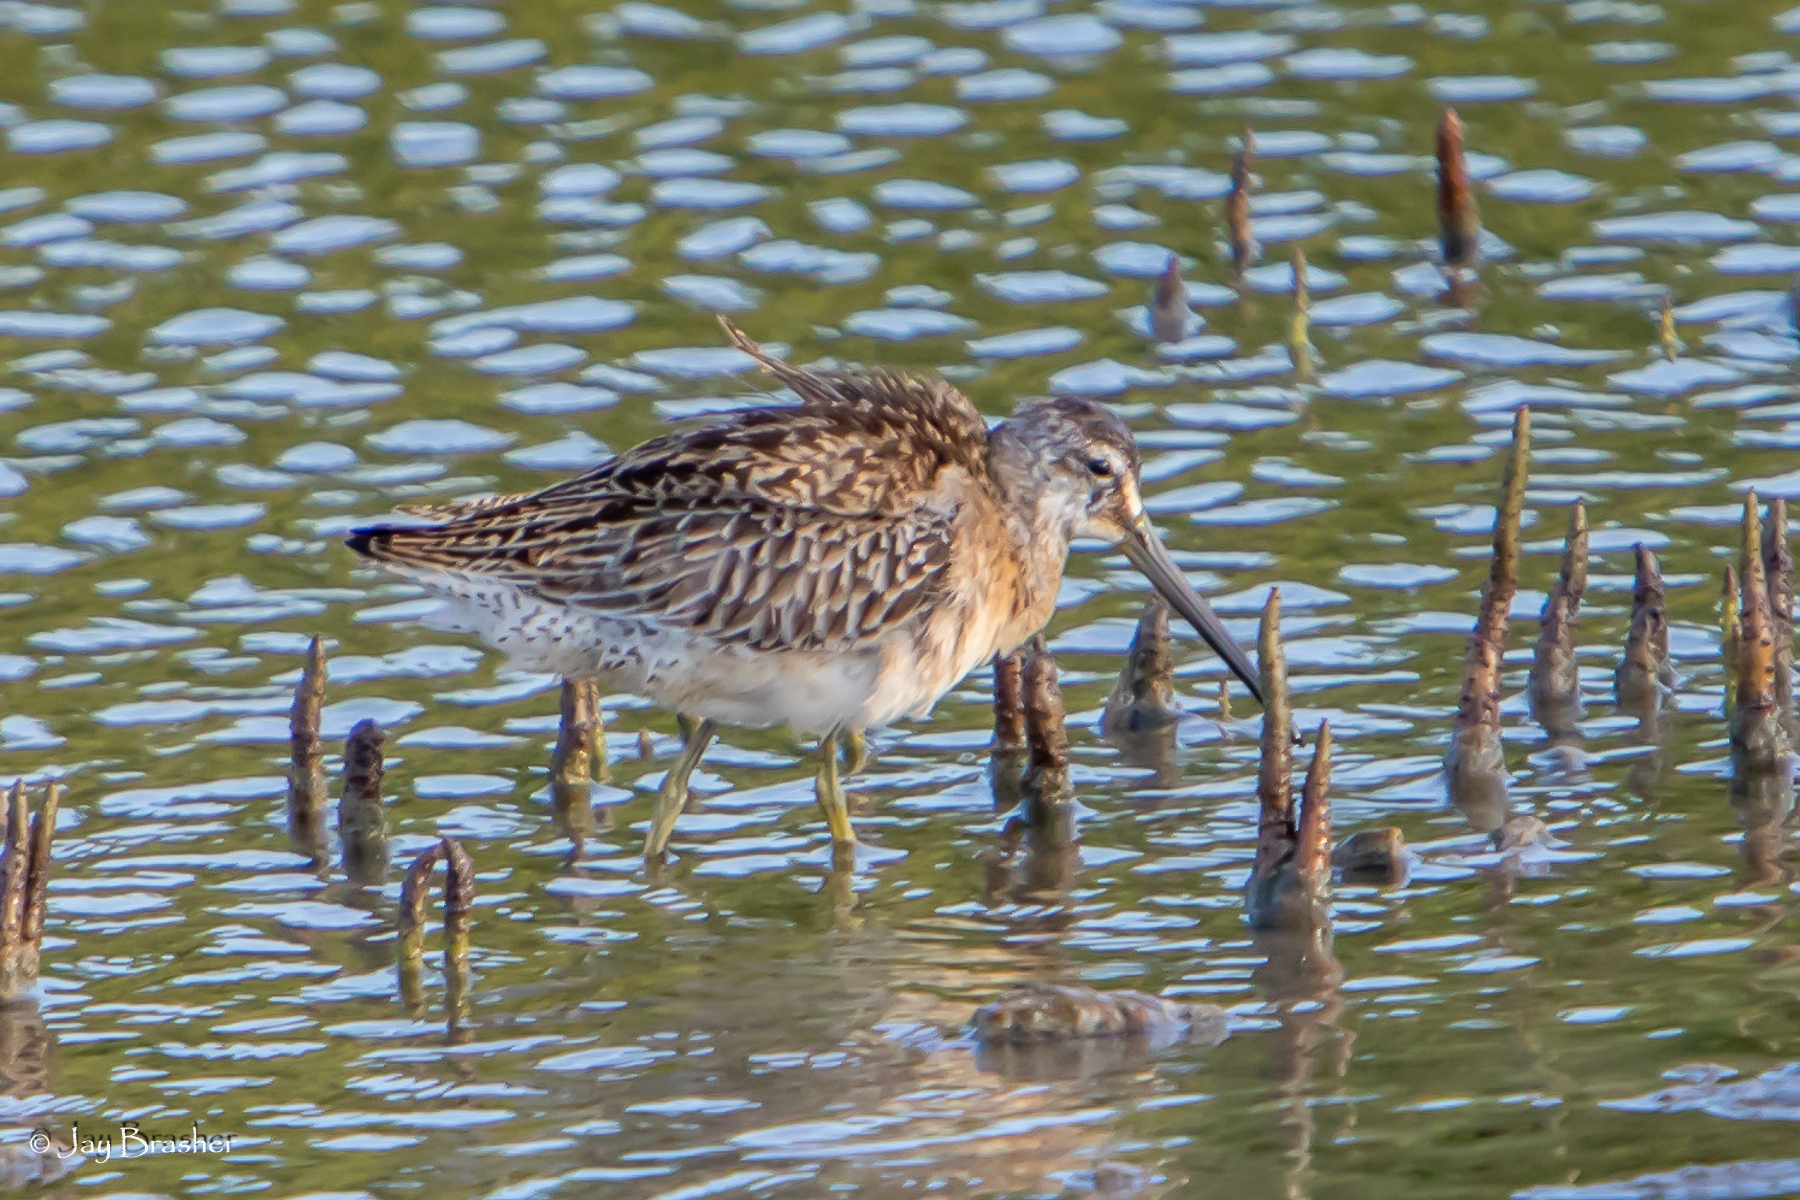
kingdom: Animalia
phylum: Chordata
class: Aves
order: Charadriiformes
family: Scolopacidae
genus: Limnodromus
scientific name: Limnodromus griseus
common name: Short-billed dowitcher
